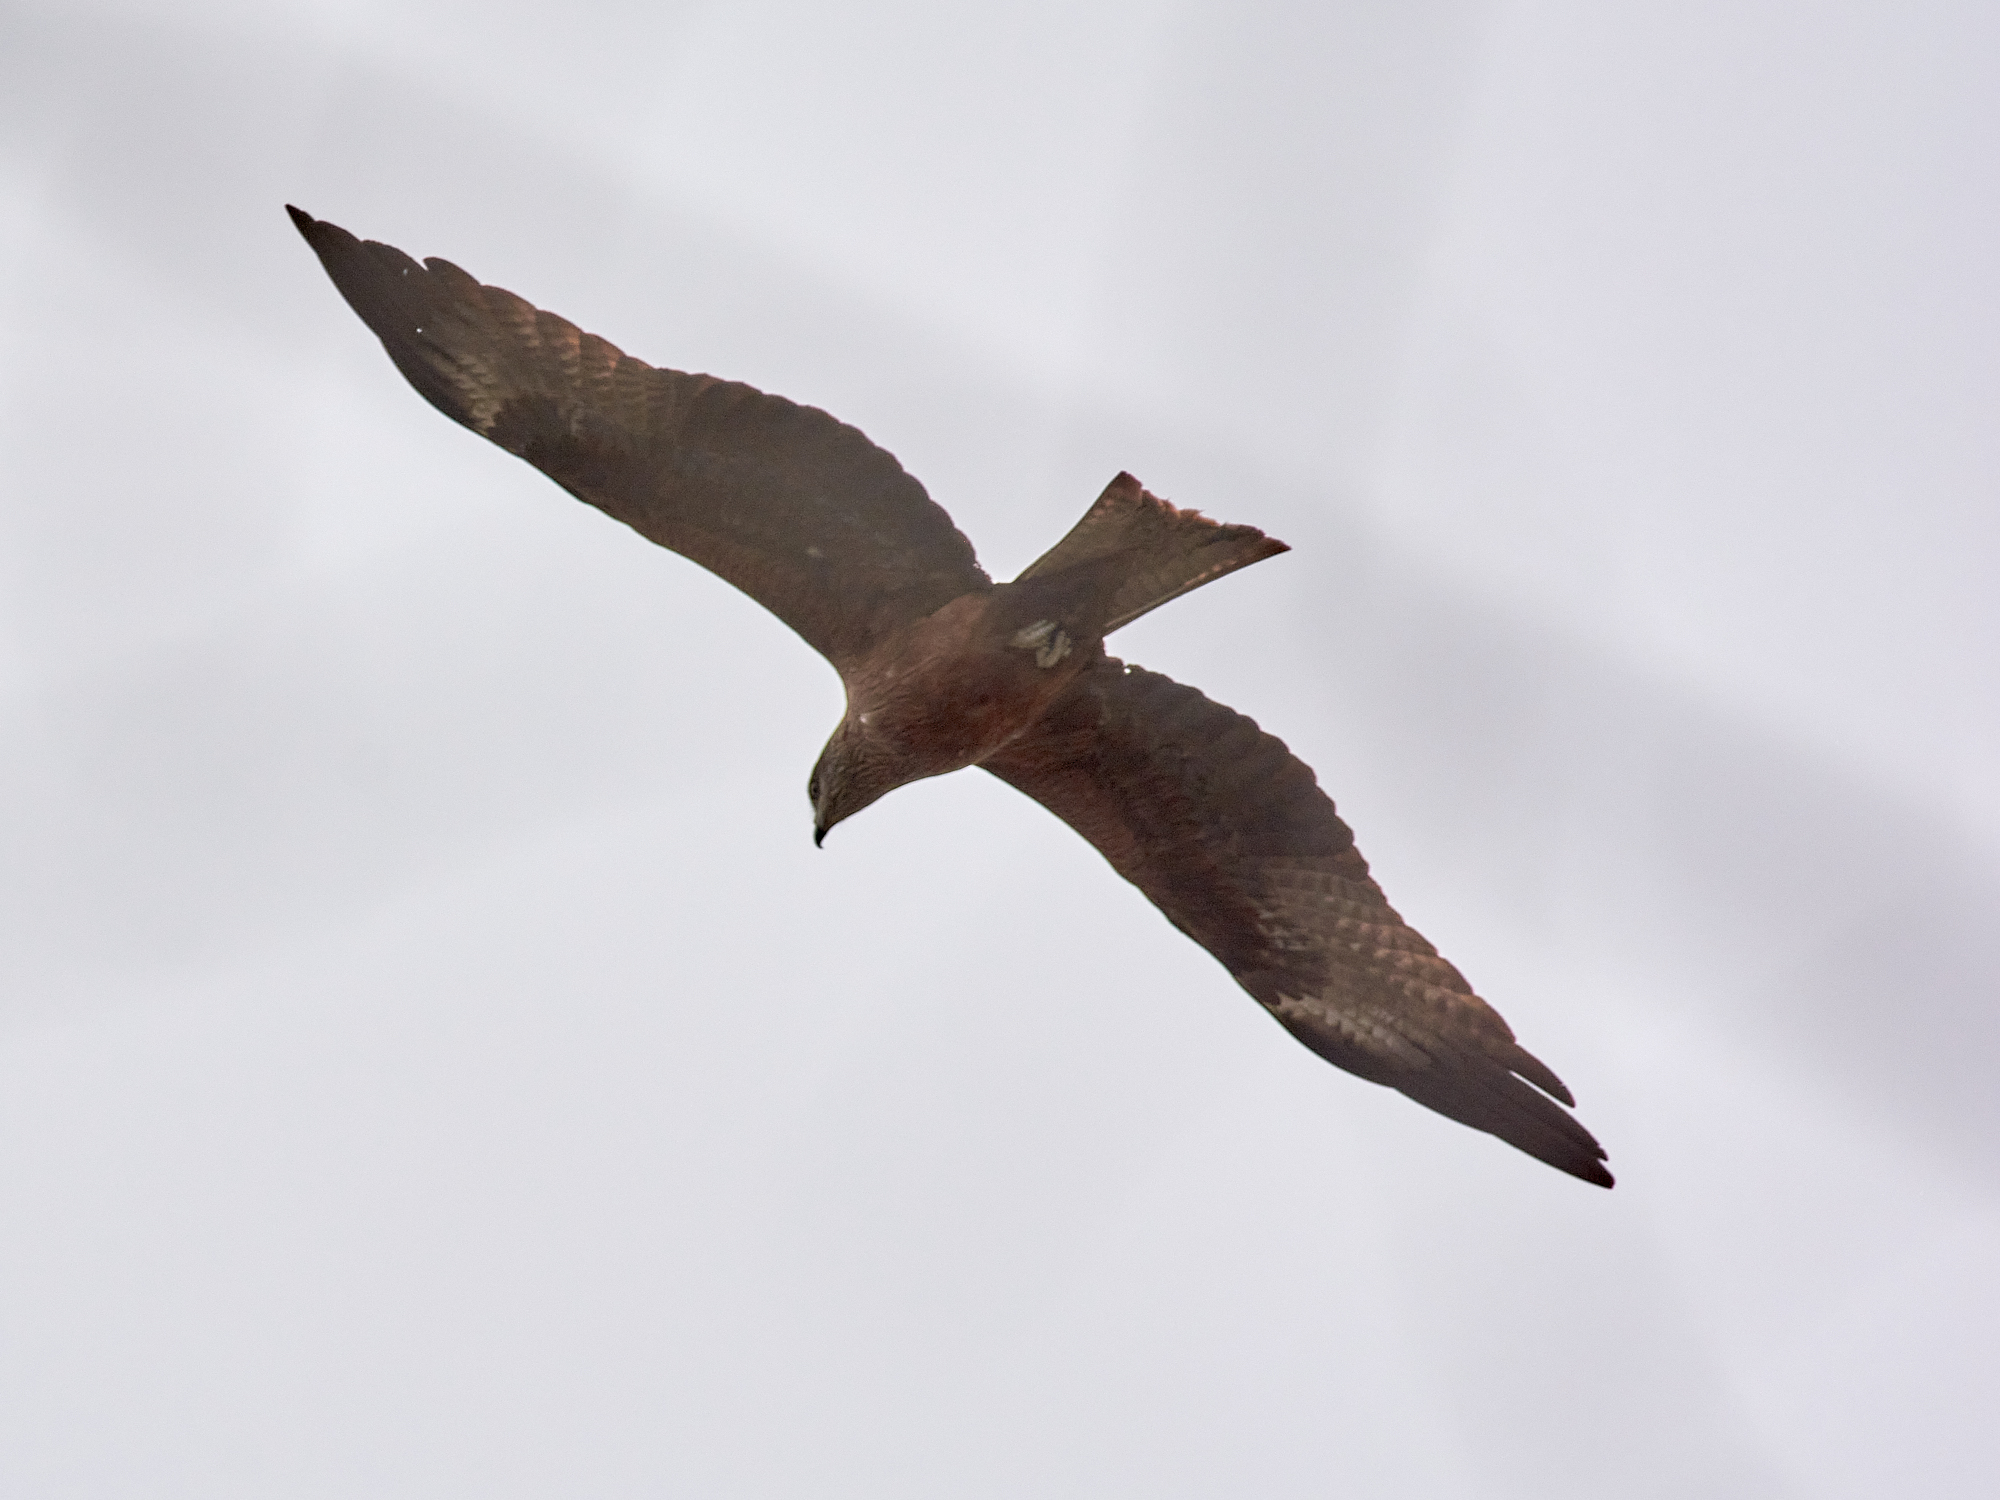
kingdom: Animalia
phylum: Chordata
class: Aves
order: Accipitriformes
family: Accipitridae
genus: Milvus
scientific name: Milvus migrans
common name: Black kite
